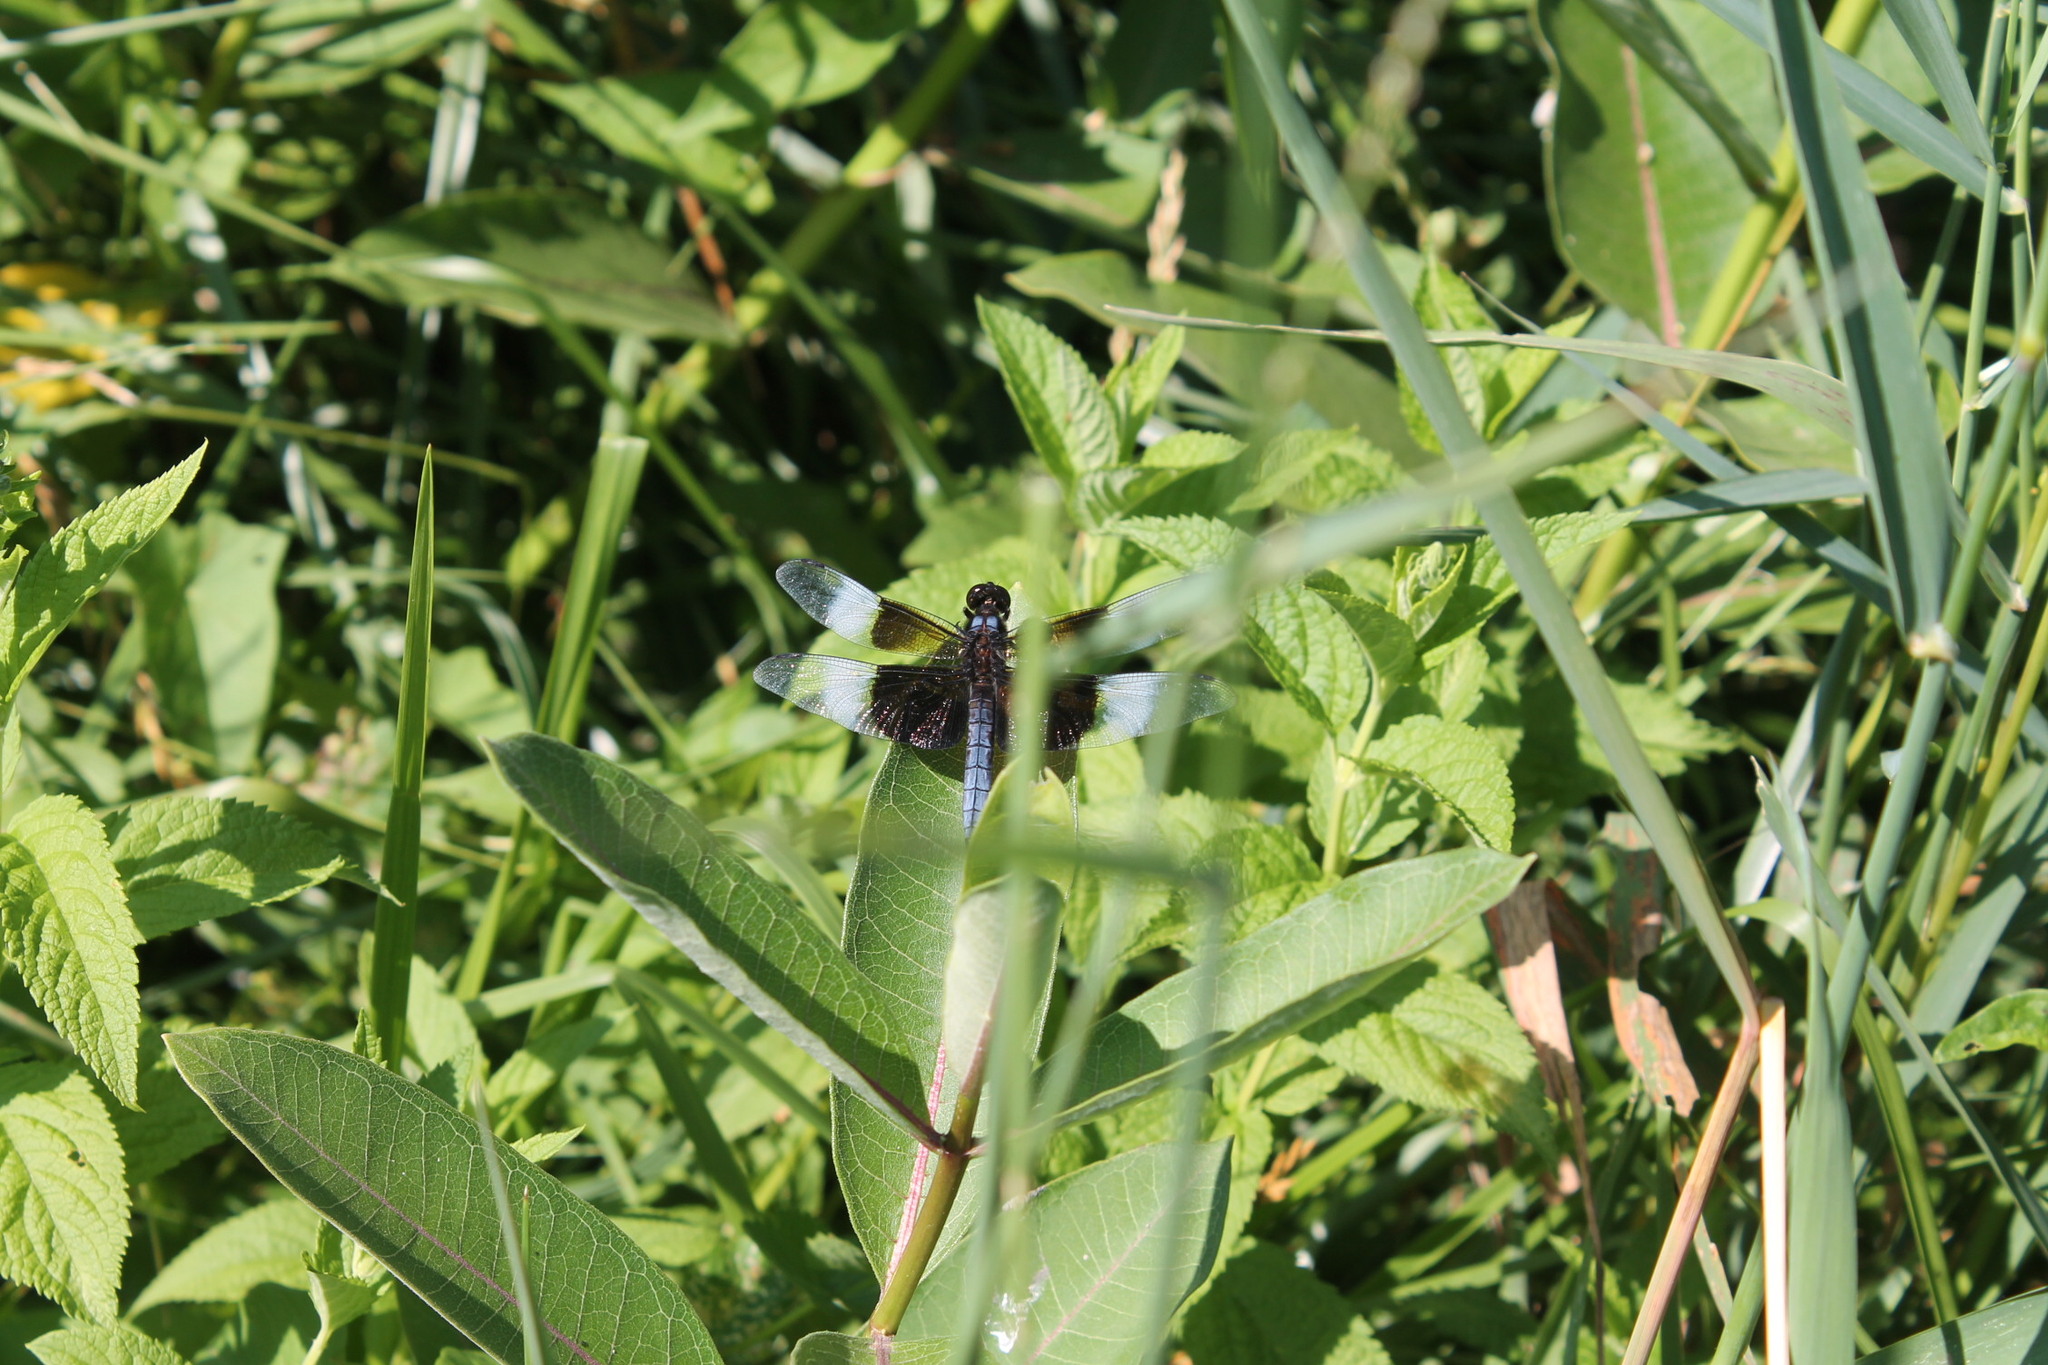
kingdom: Animalia
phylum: Arthropoda
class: Insecta
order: Odonata
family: Libellulidae
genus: Libellula
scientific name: Libellula luctuosa
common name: Widow skimmer
